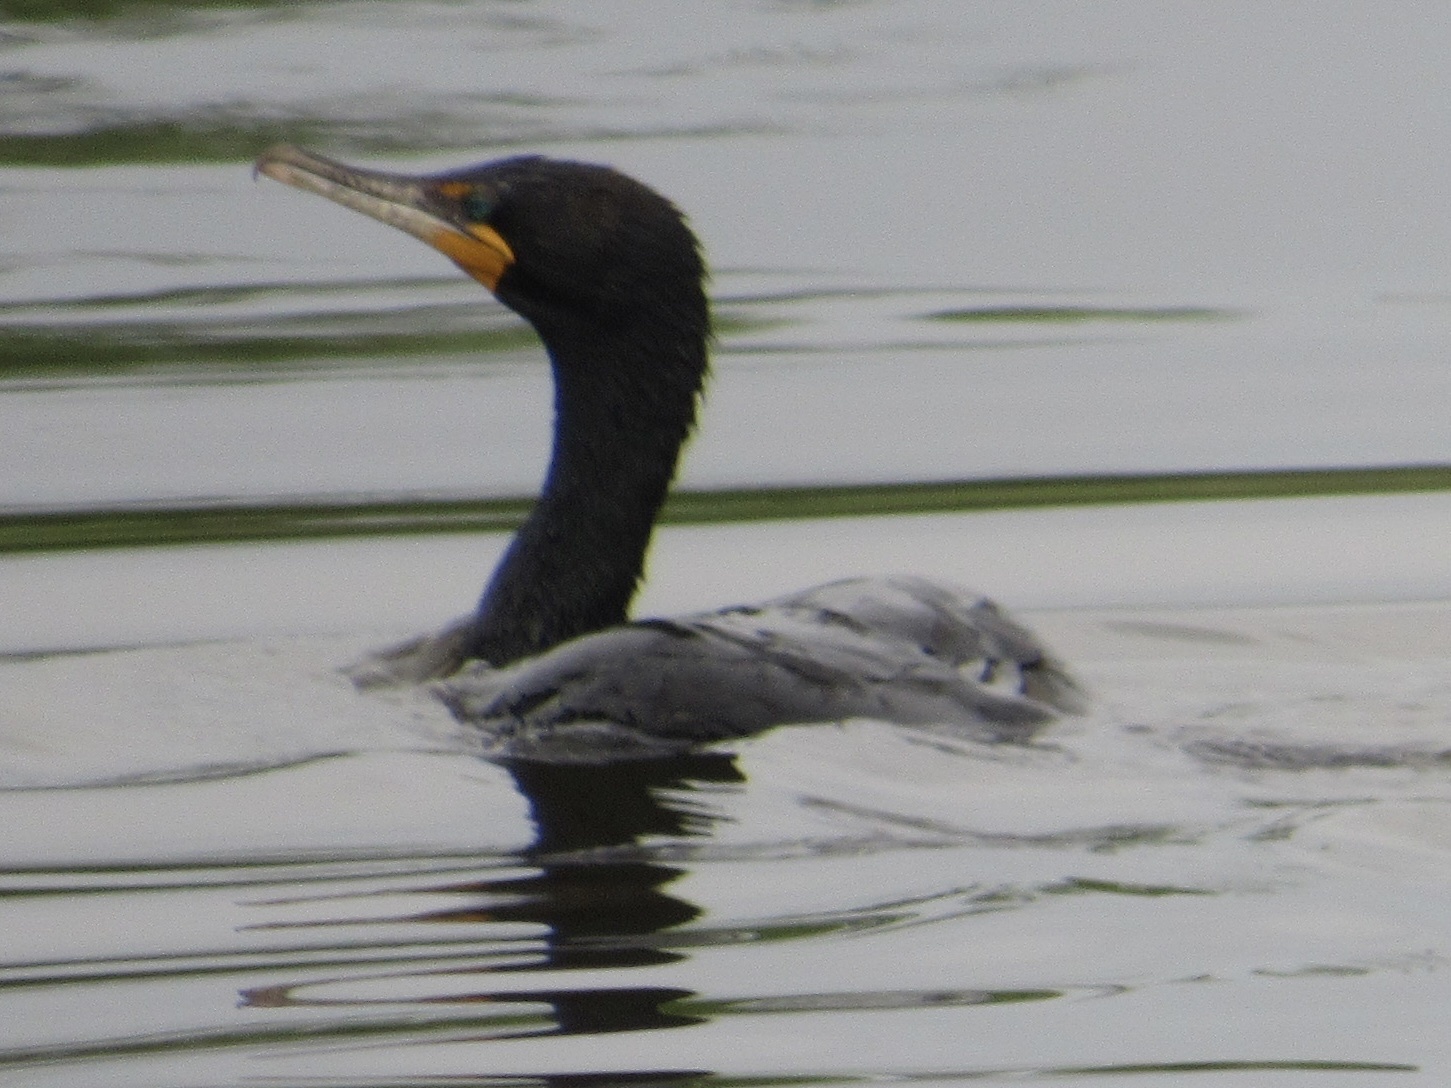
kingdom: Animalia
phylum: Chordata
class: Aves
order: Suliformes
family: Phalacrocoracidae
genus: Phalacrocorax
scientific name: Phalacrocorax auritus
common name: Double-crested cormorant
